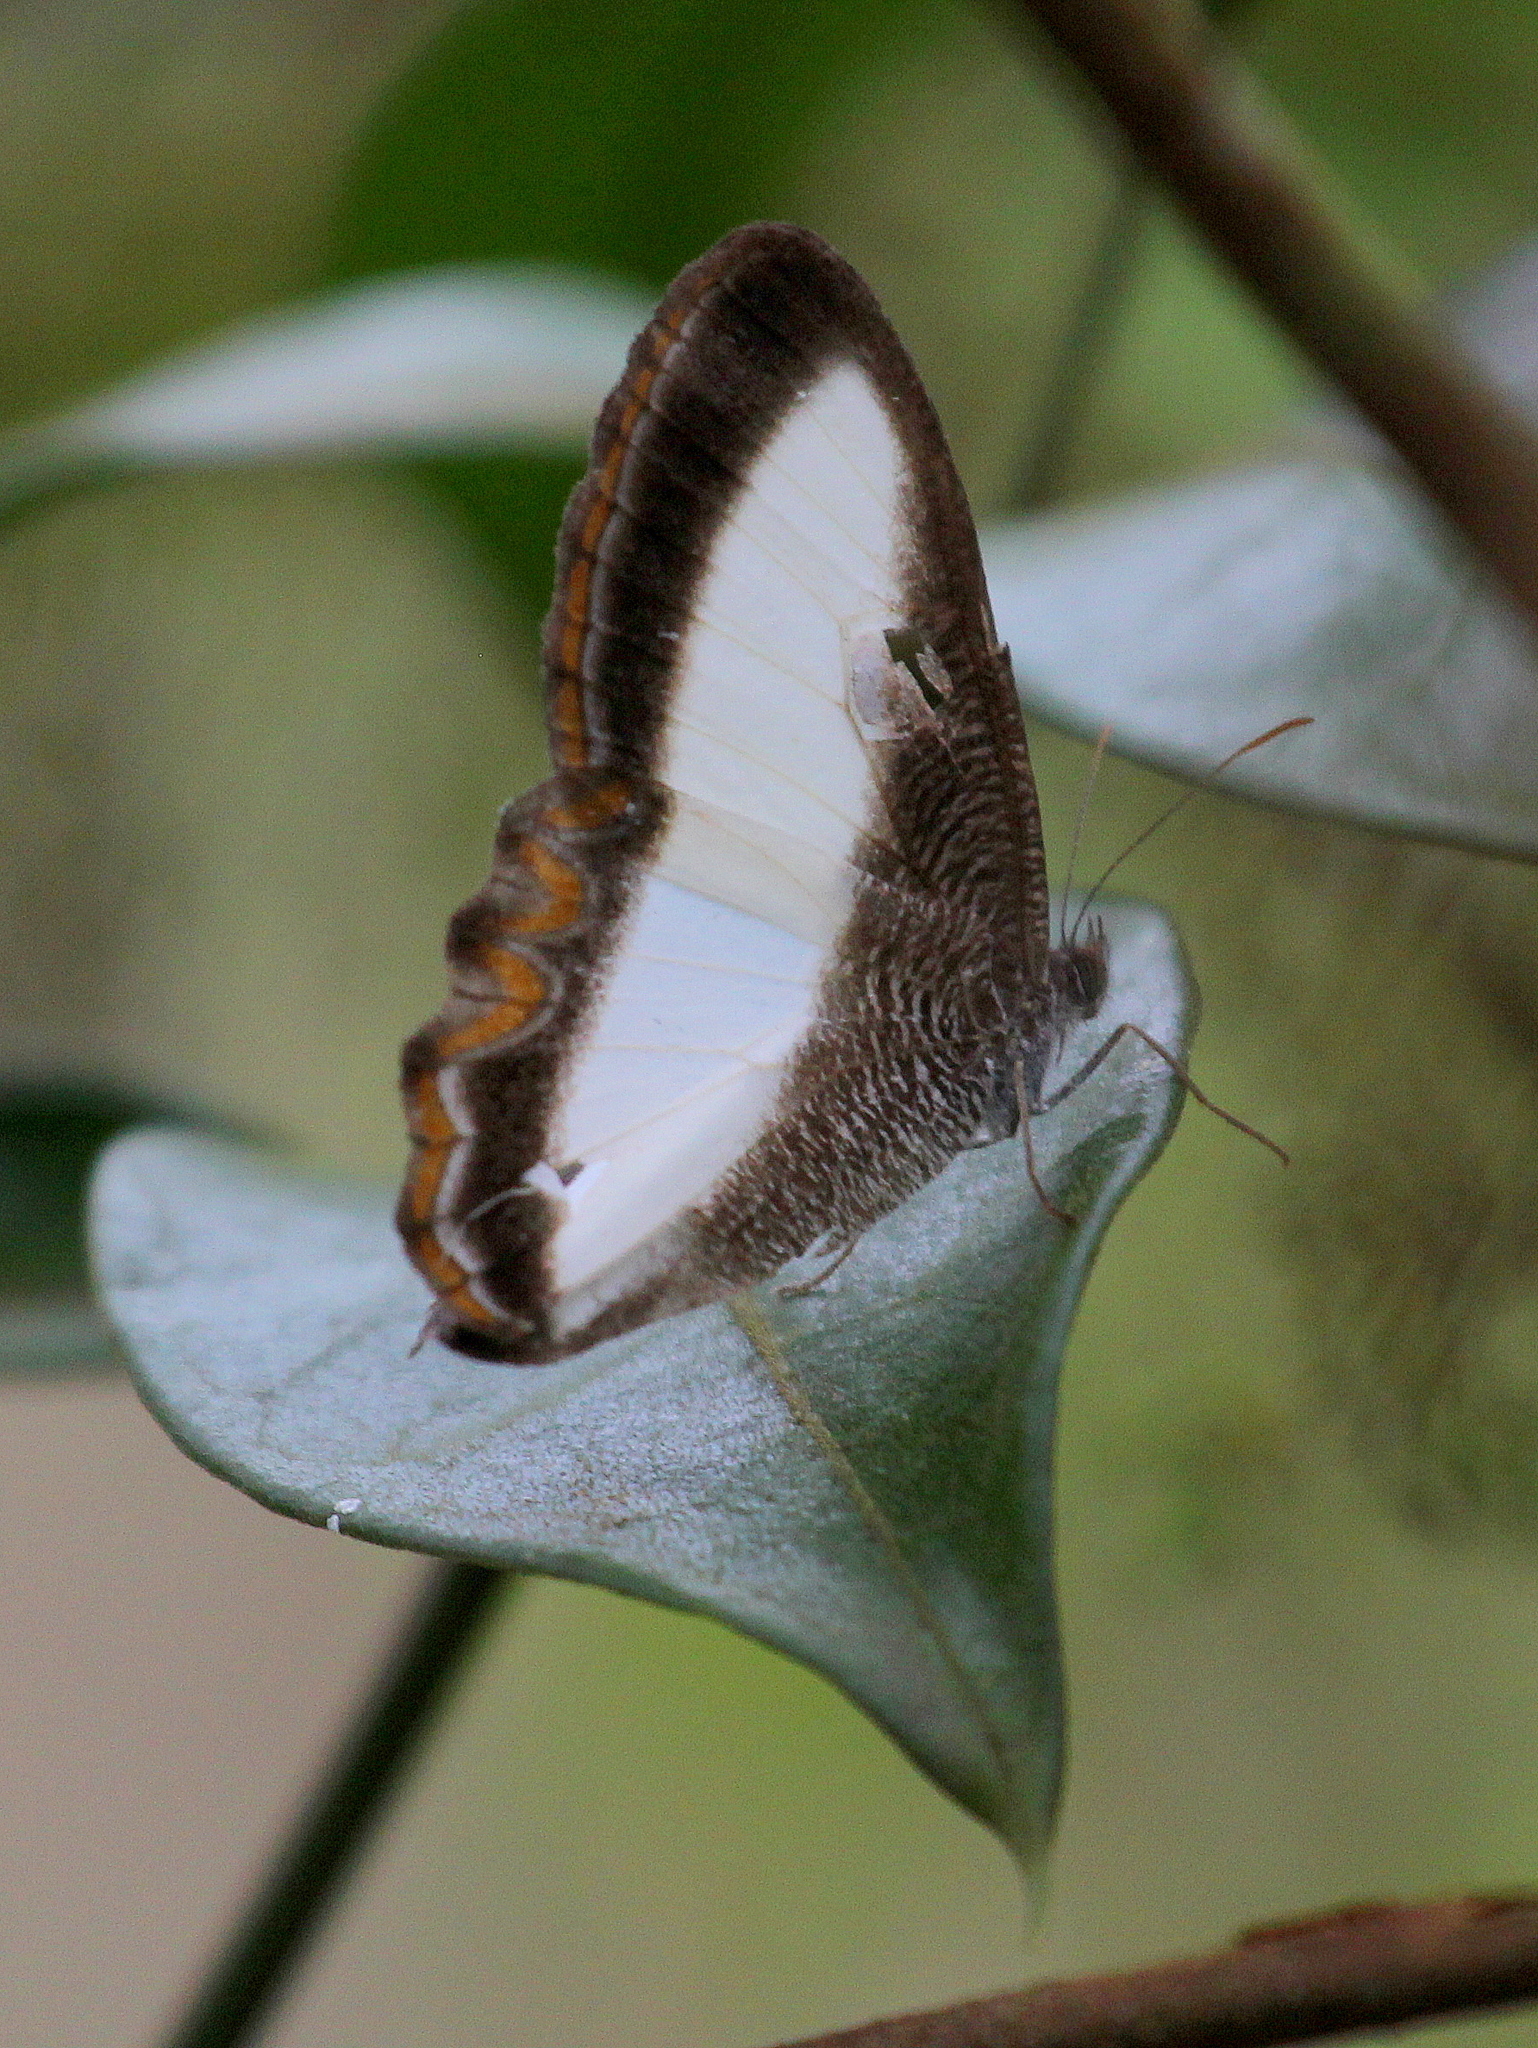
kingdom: Animalia
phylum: Arthropoda
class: Insecta
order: Lepidoptera
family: Nymphalidae
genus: Oressinoma
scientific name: Oressinoma typhla
